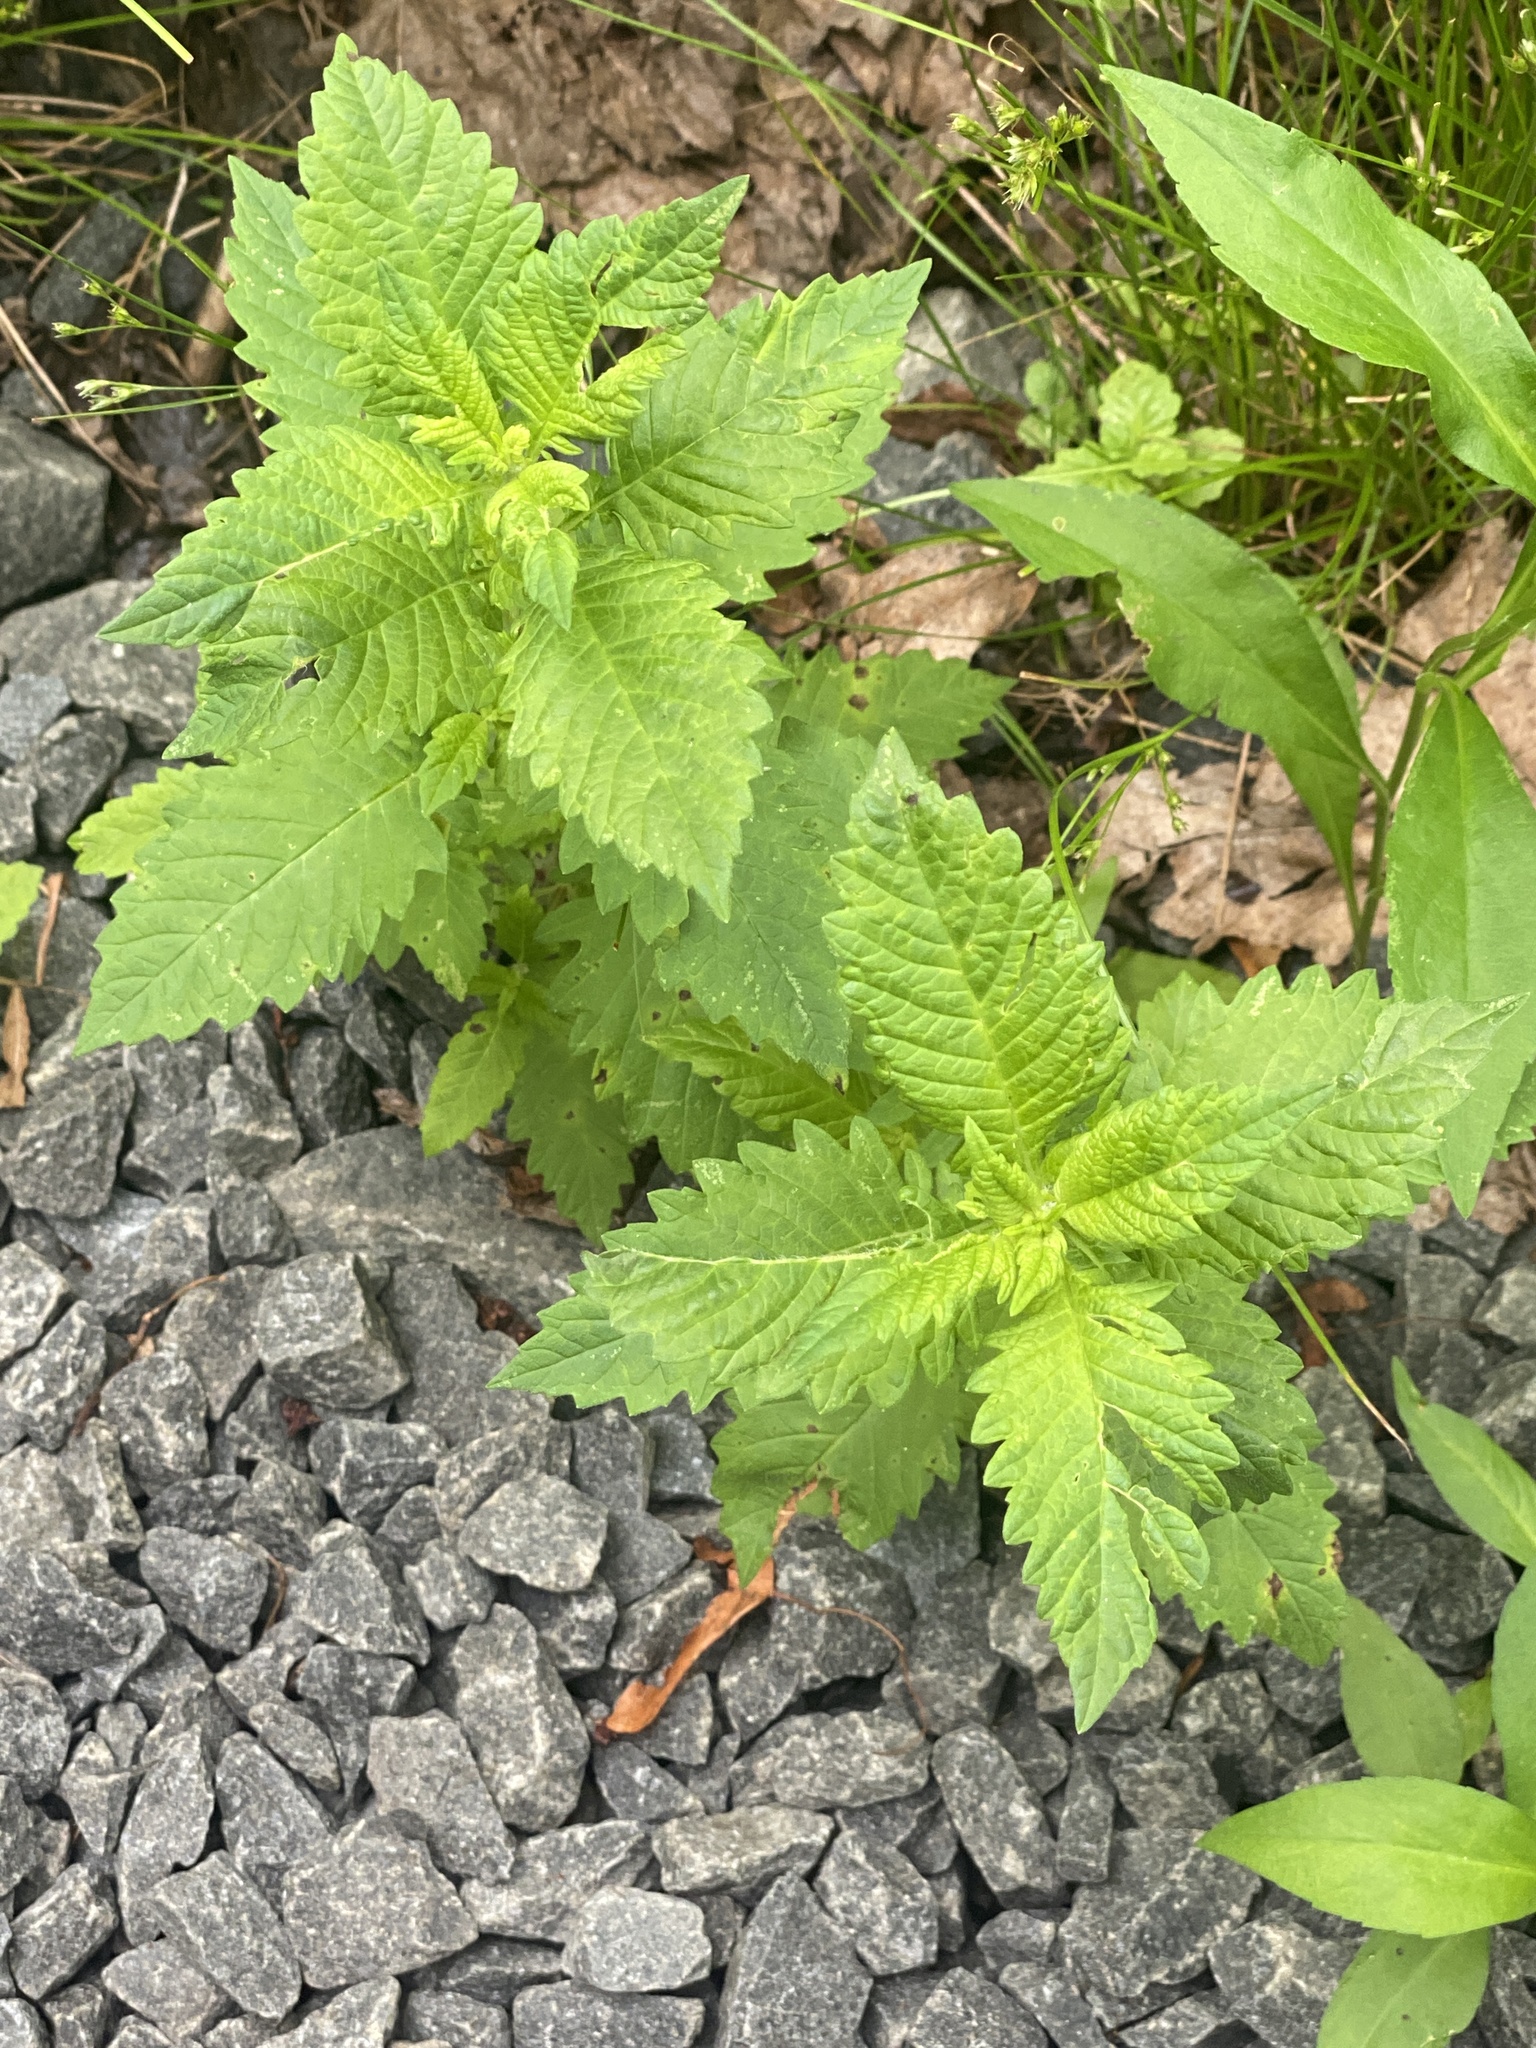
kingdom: Plantae
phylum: Tracheophyta
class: Magnoliopsida
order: Lamiales
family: Lamiaceae
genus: Lycopus
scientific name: Lycopus europaeus
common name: European bugleweed
